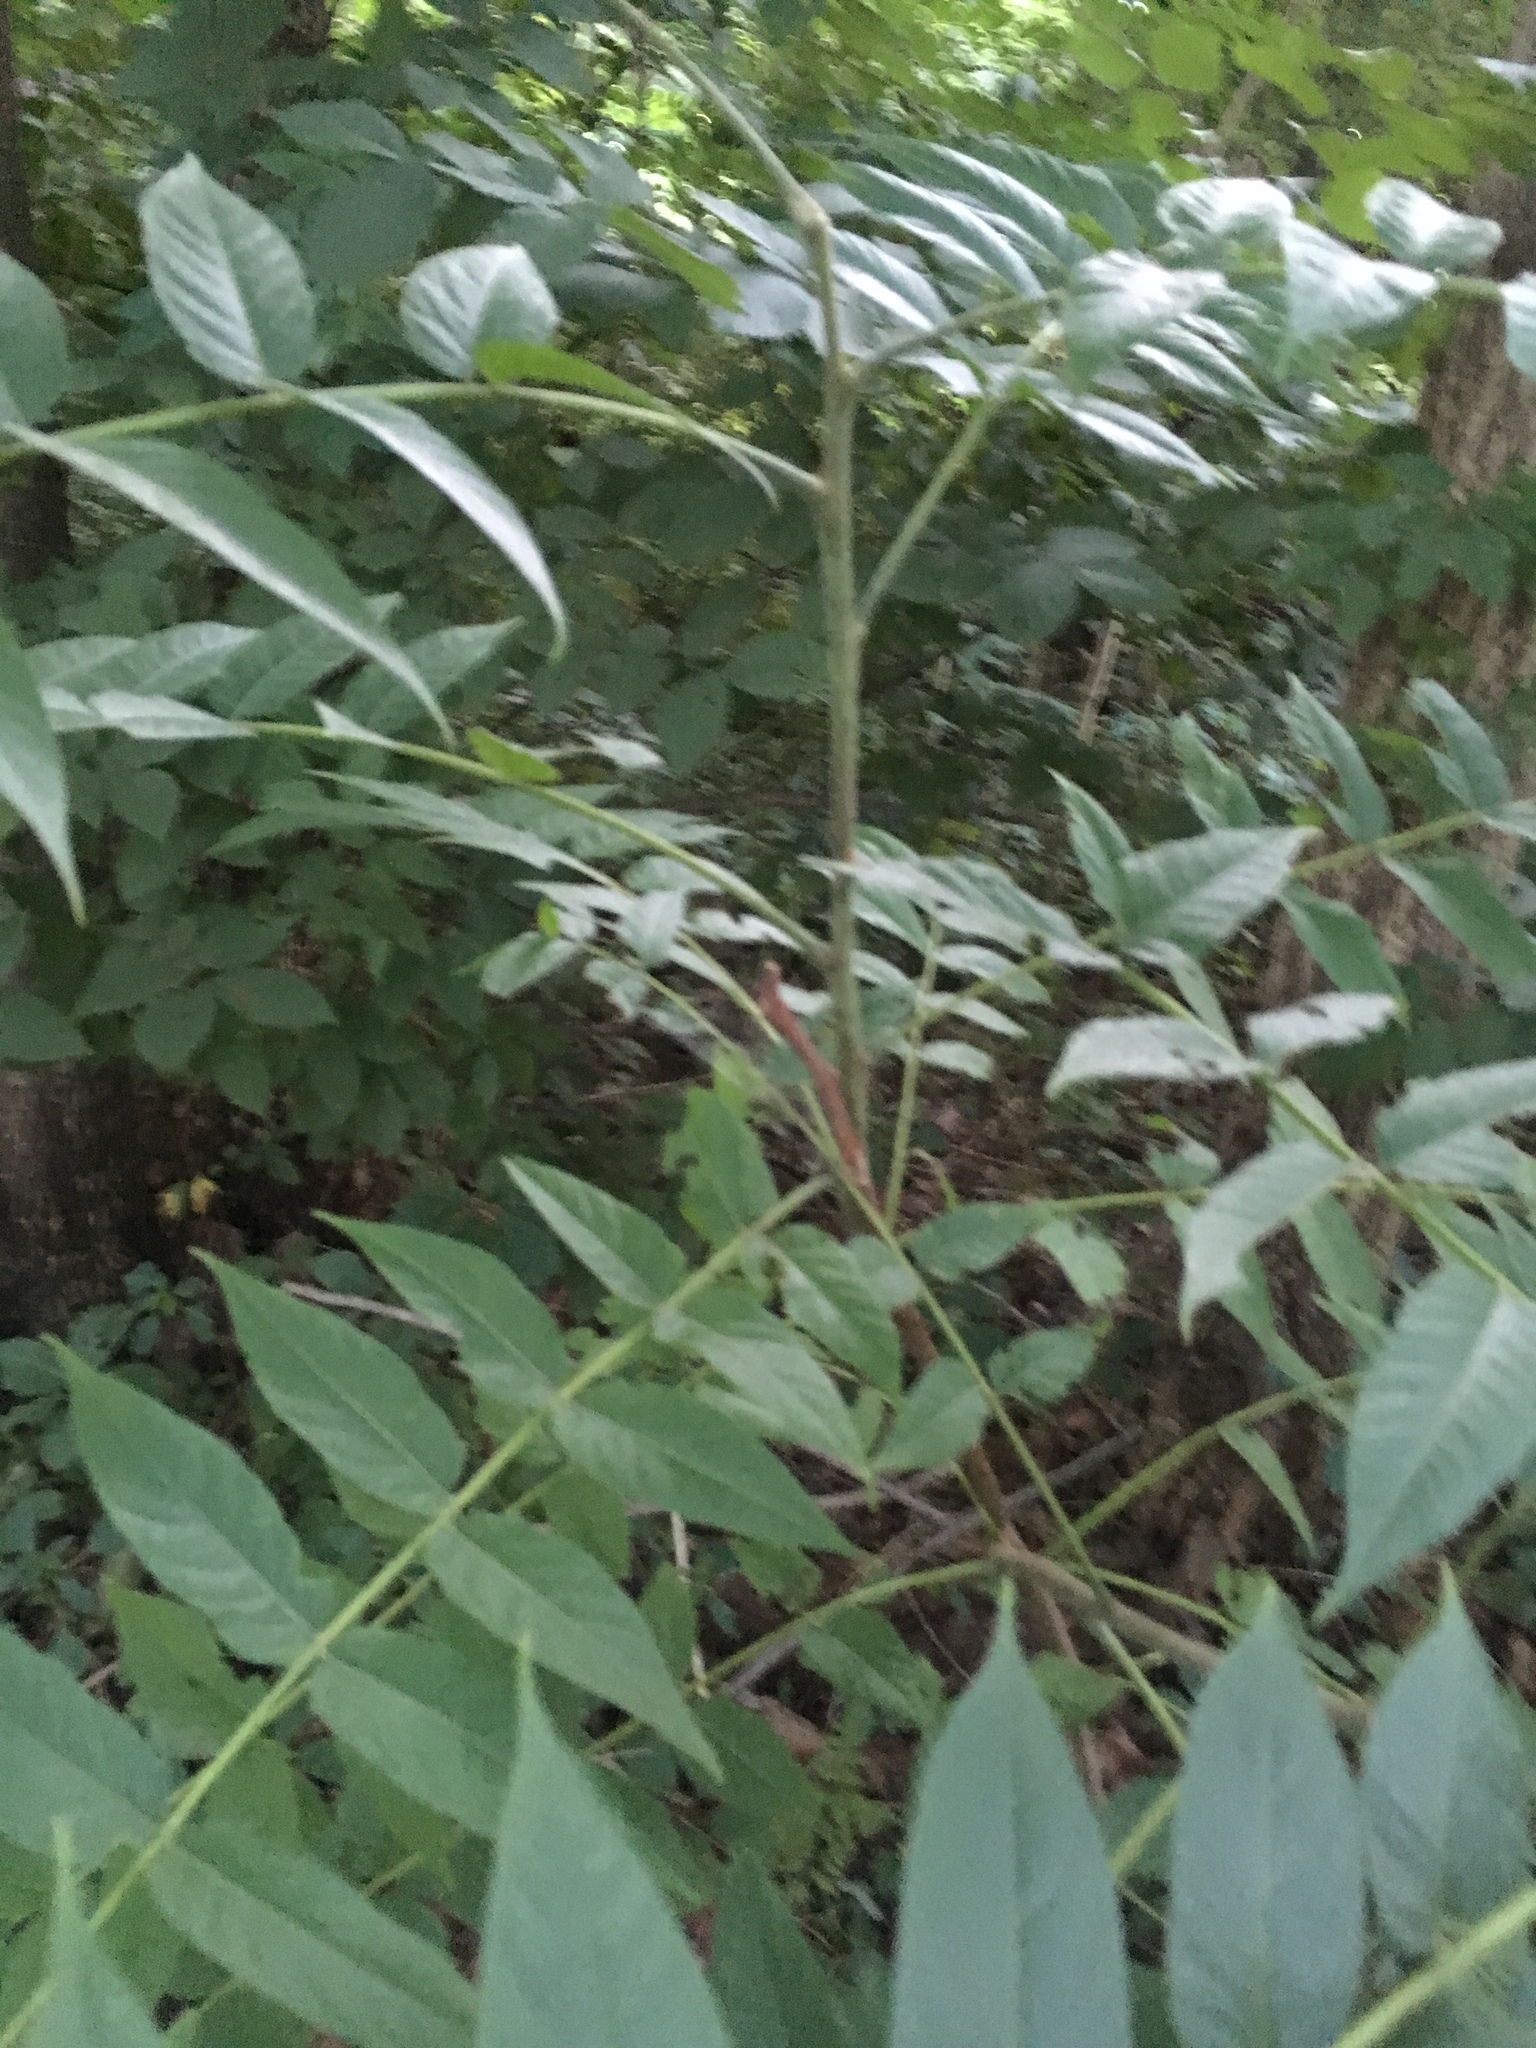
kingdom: Plantae
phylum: Tracheophyta
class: Magnoliopsida
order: Sapindales
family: Simaroubaceae
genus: Ailanthus
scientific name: Ailanthus altissima
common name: Tree-of-heaven
